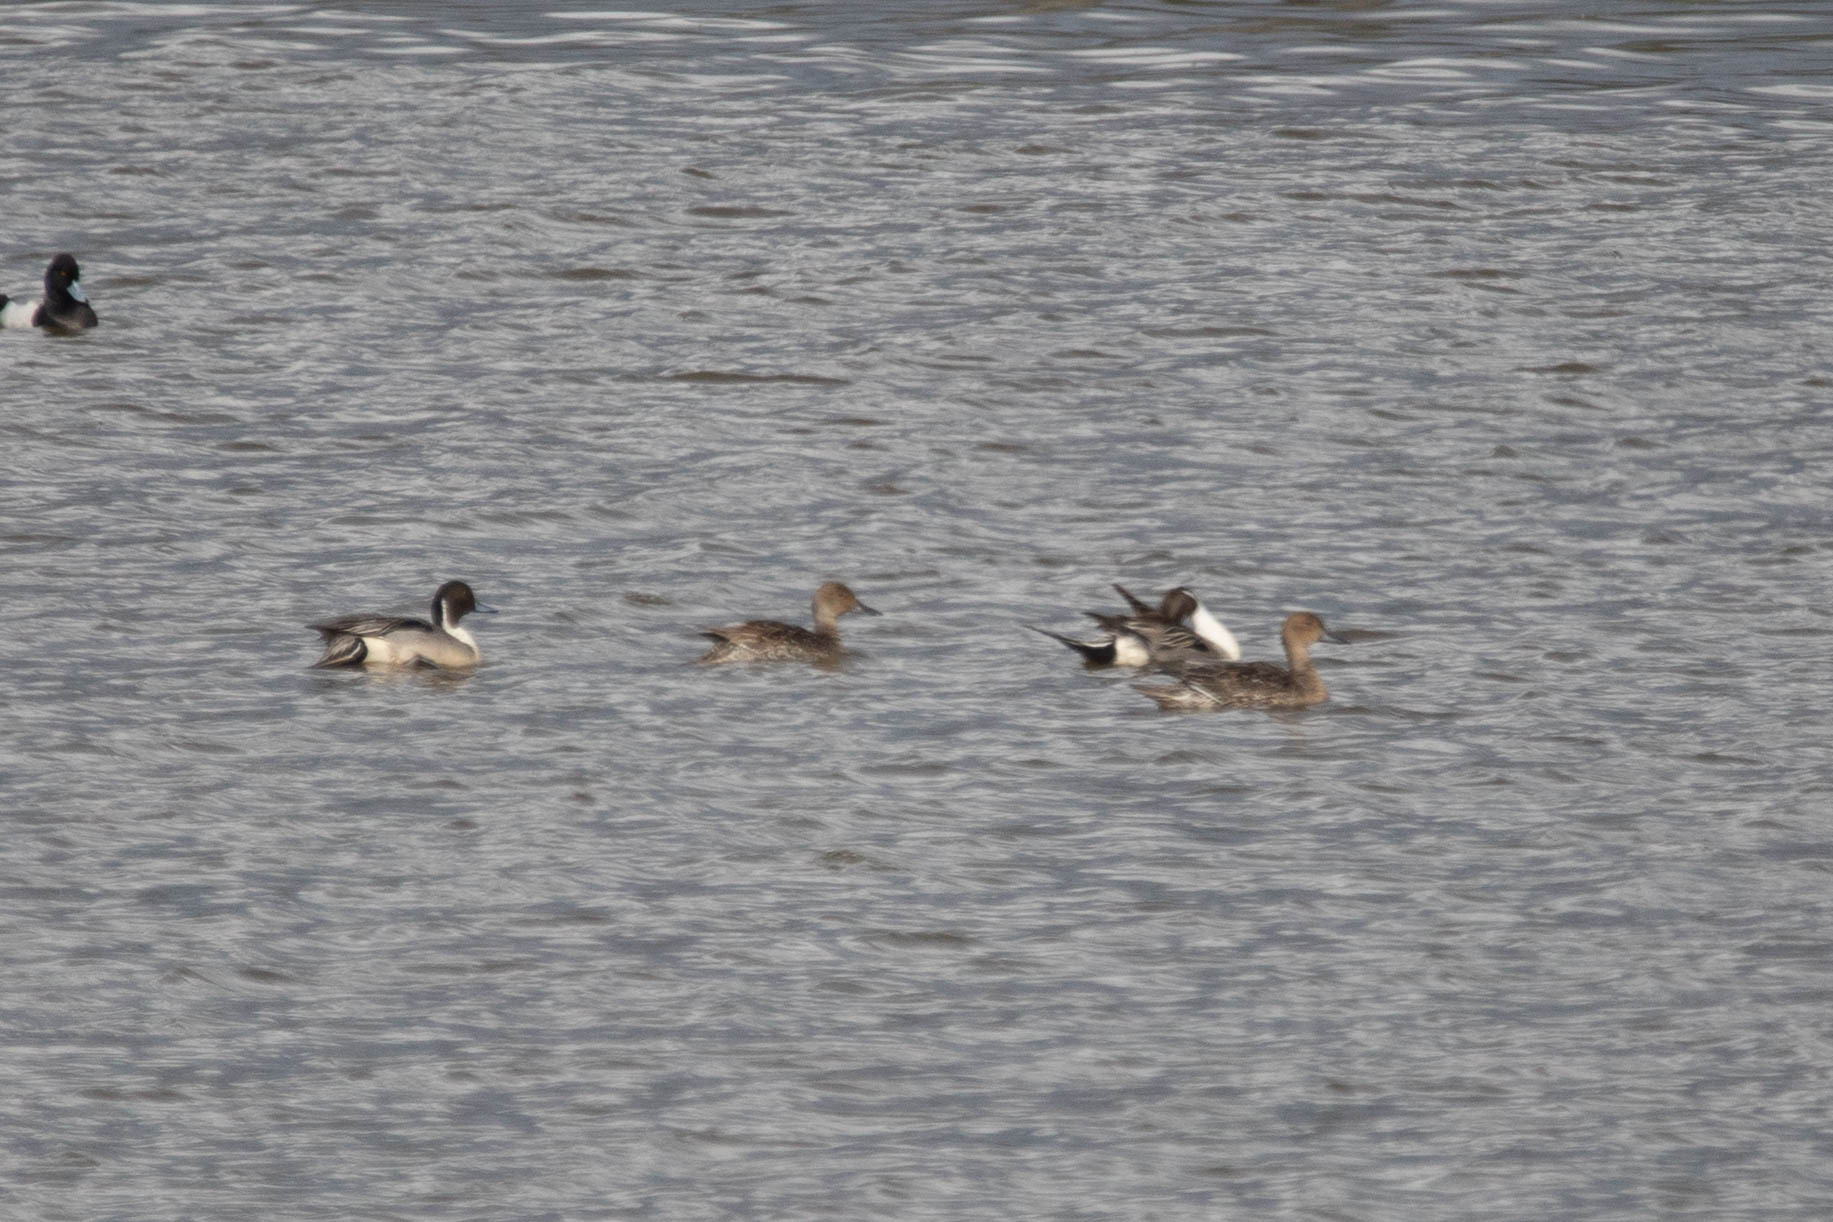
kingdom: Animalia
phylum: Chordata
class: Aves
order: Anseriformes
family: Anatidae
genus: Anas
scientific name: Anas acuta
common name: Northern pintail
